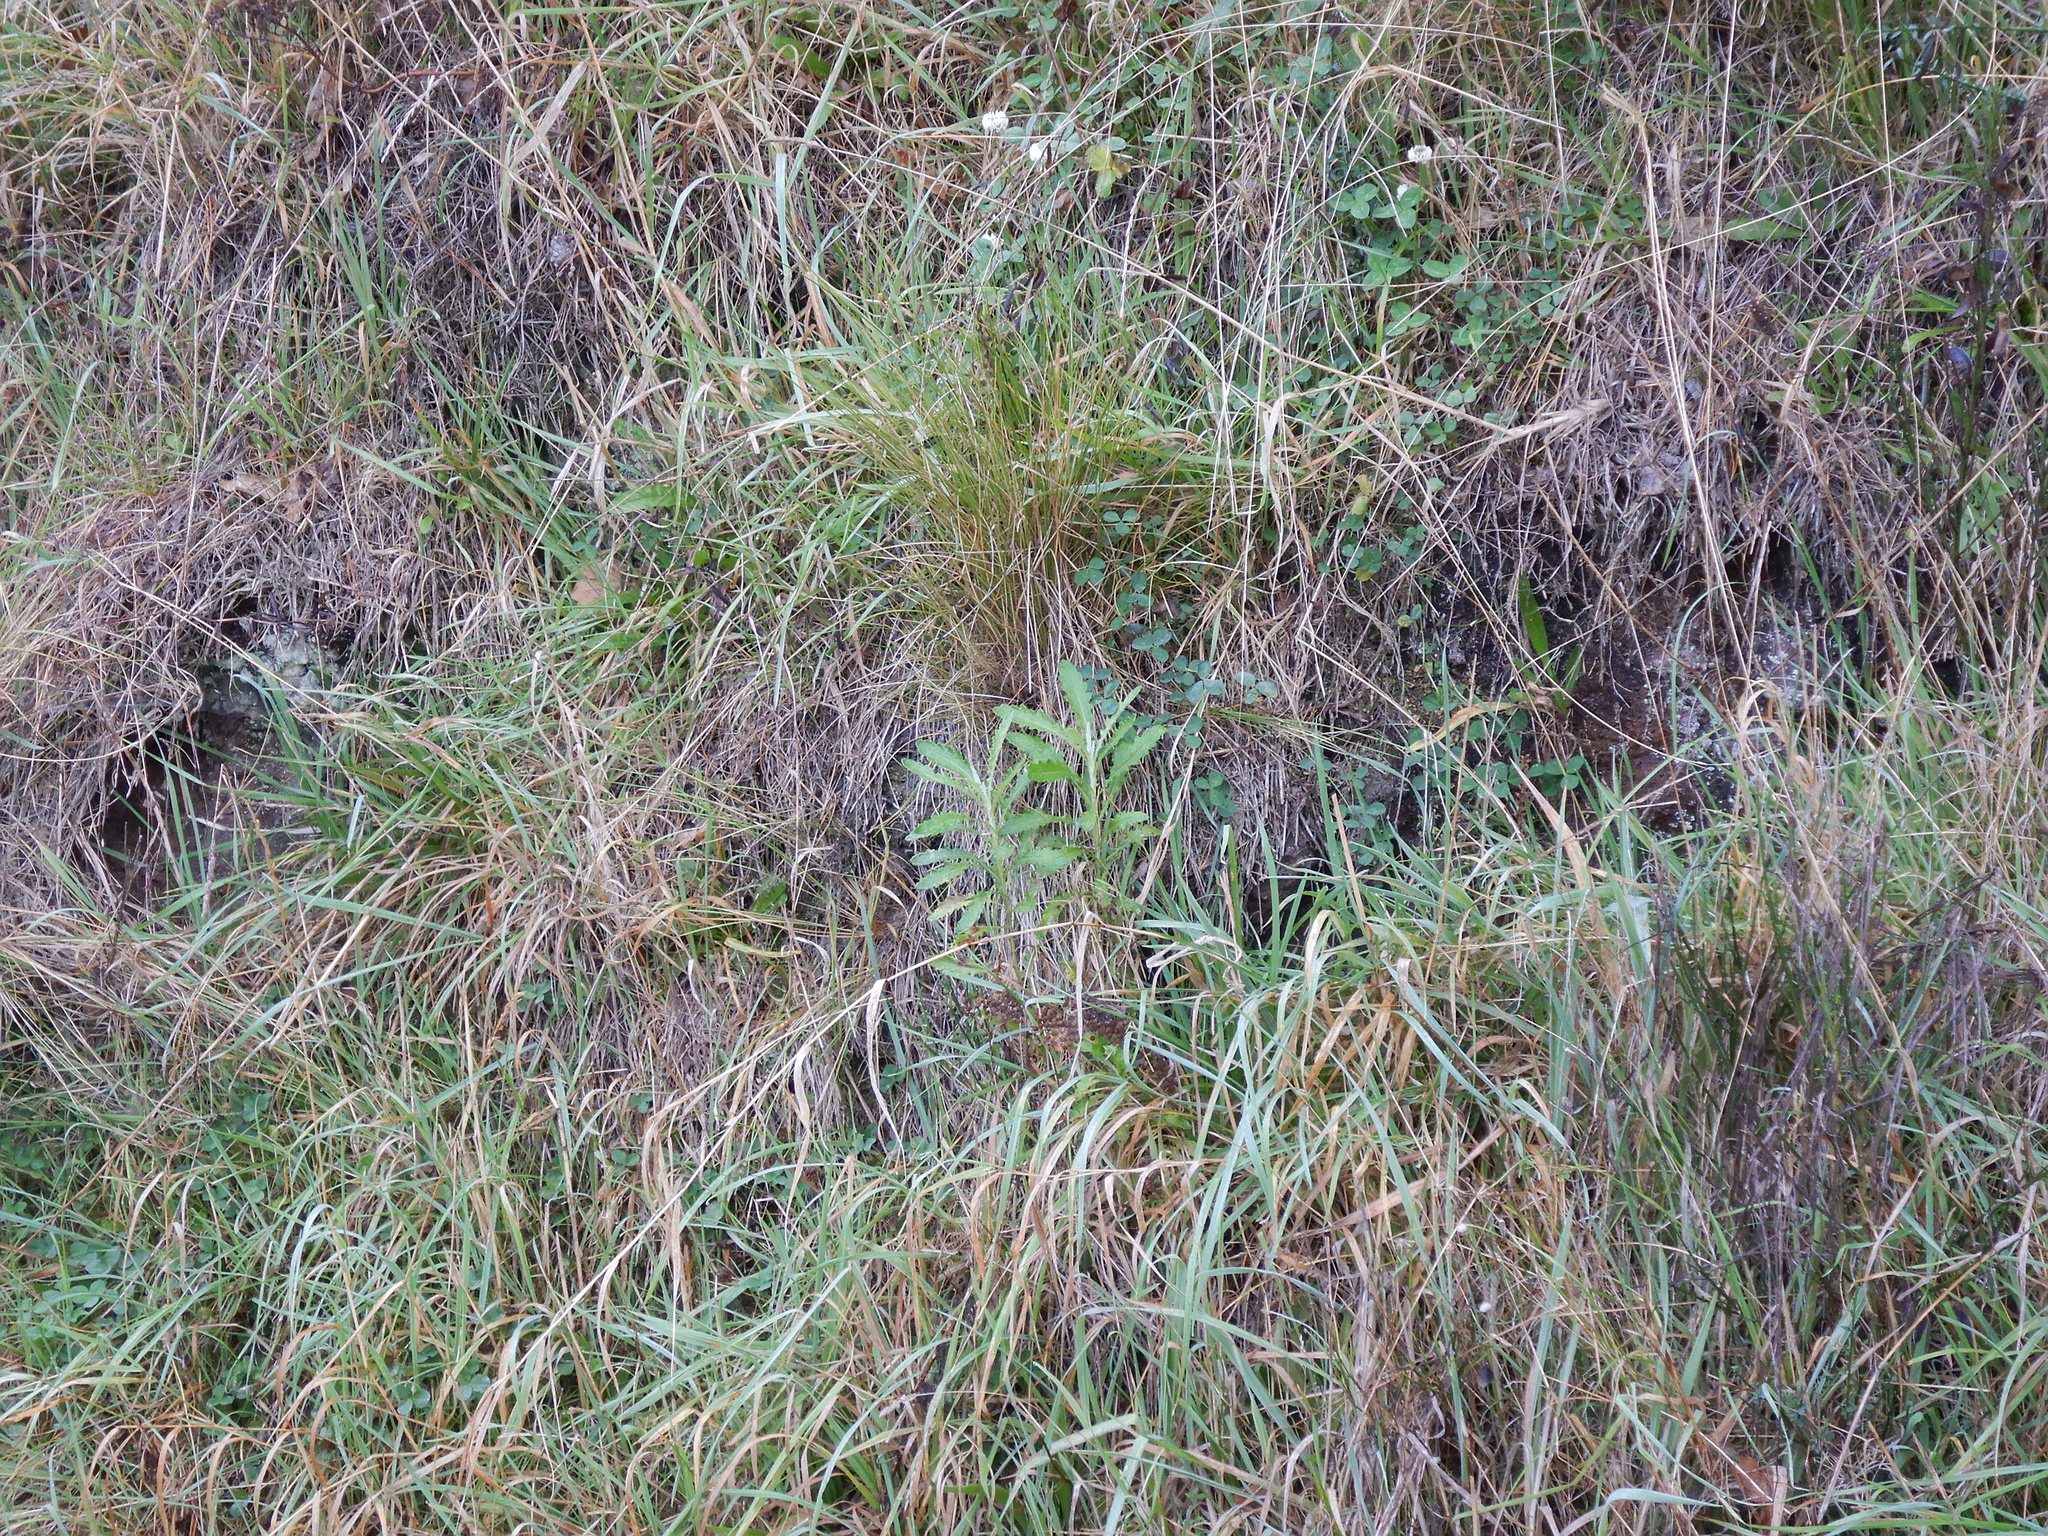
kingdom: Plantae
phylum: Tracheophyta
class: Magnoliopsida
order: Asterales
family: Asteraceae
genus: Senecio
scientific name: Senecio glomeratus
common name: Cutleaf burnweed
